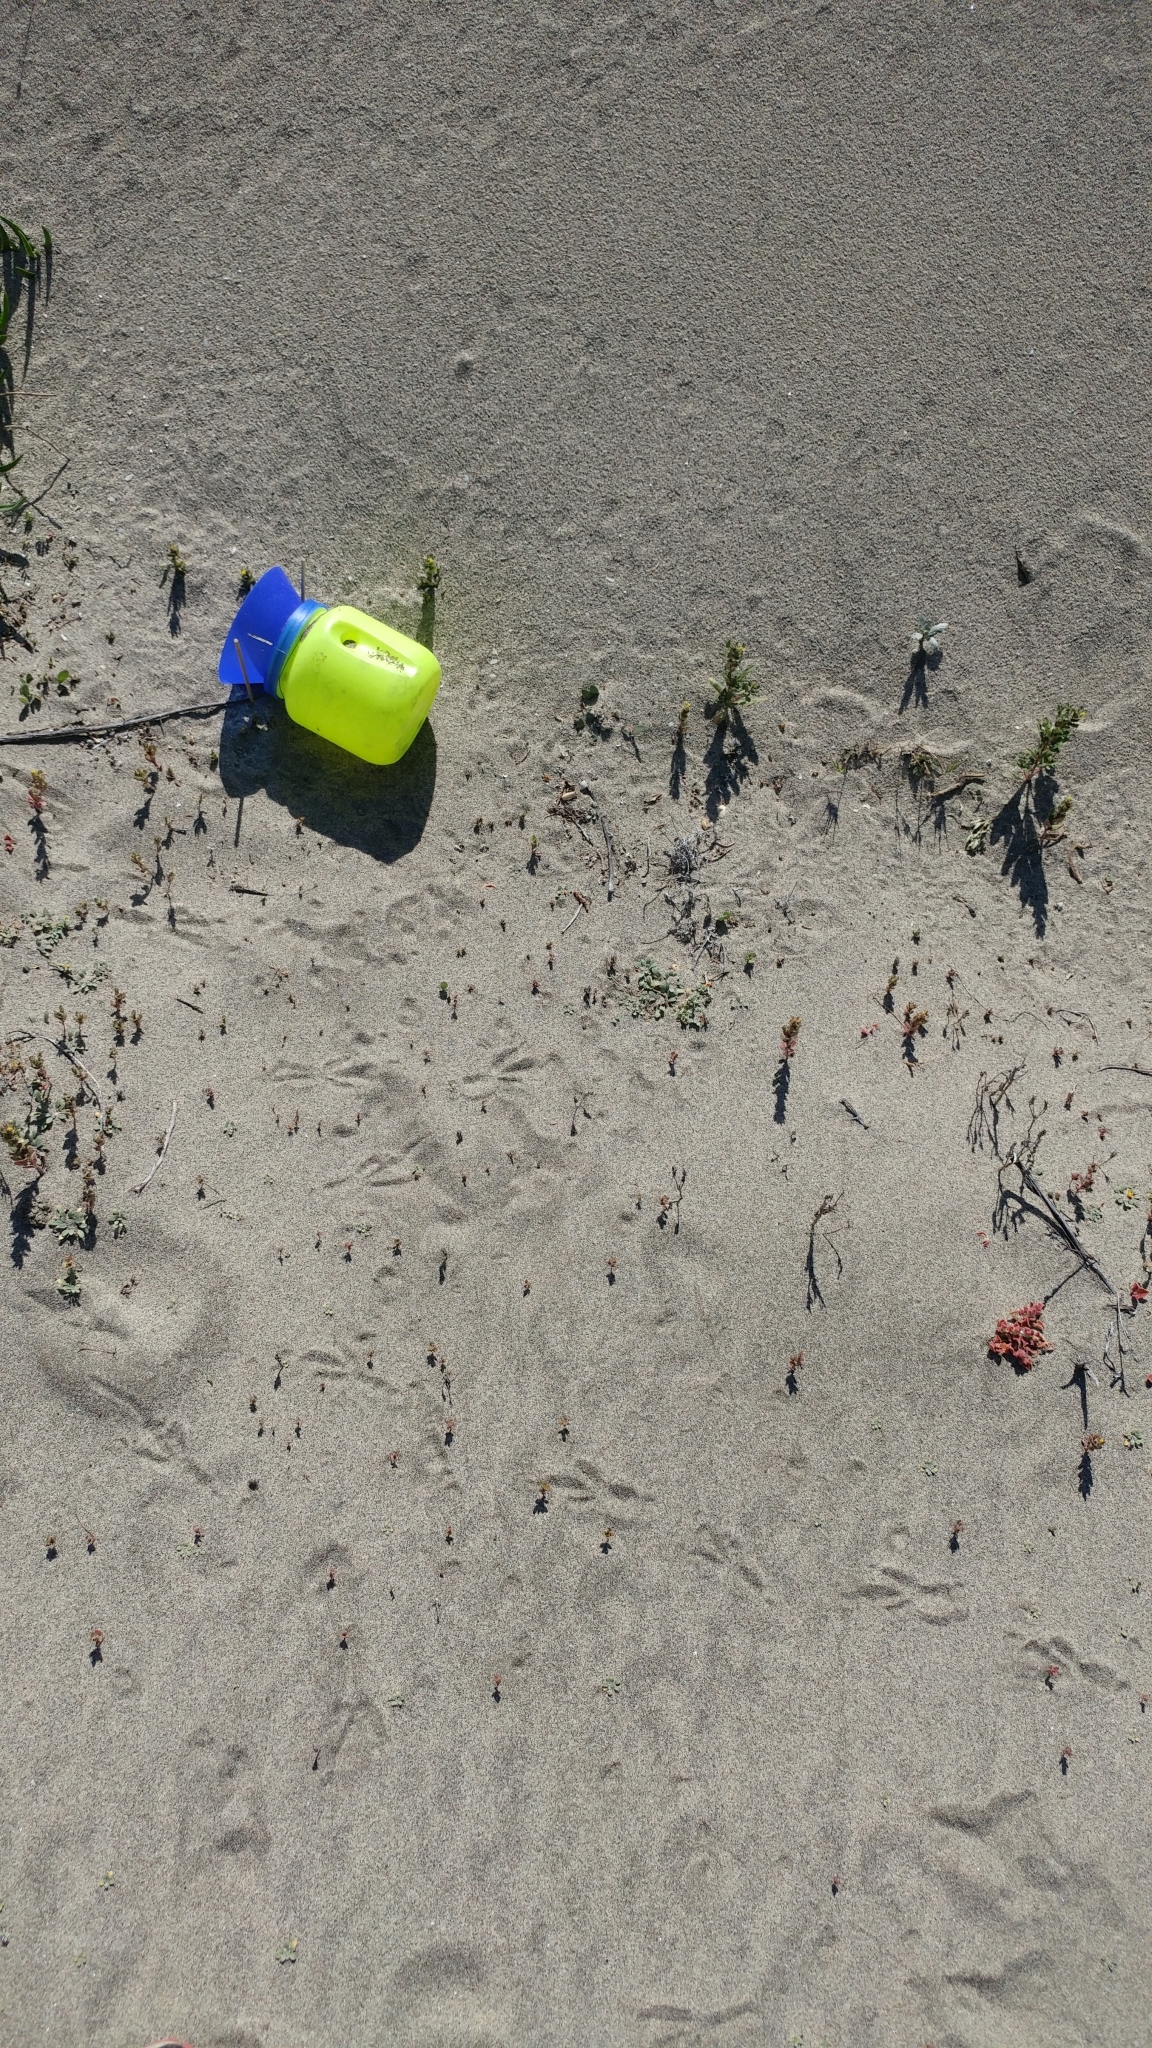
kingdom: Animalia
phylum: Chordata
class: Aves
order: Passeriformes
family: Corvidae
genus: Corvus
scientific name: Corvus corax
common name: Common raven
